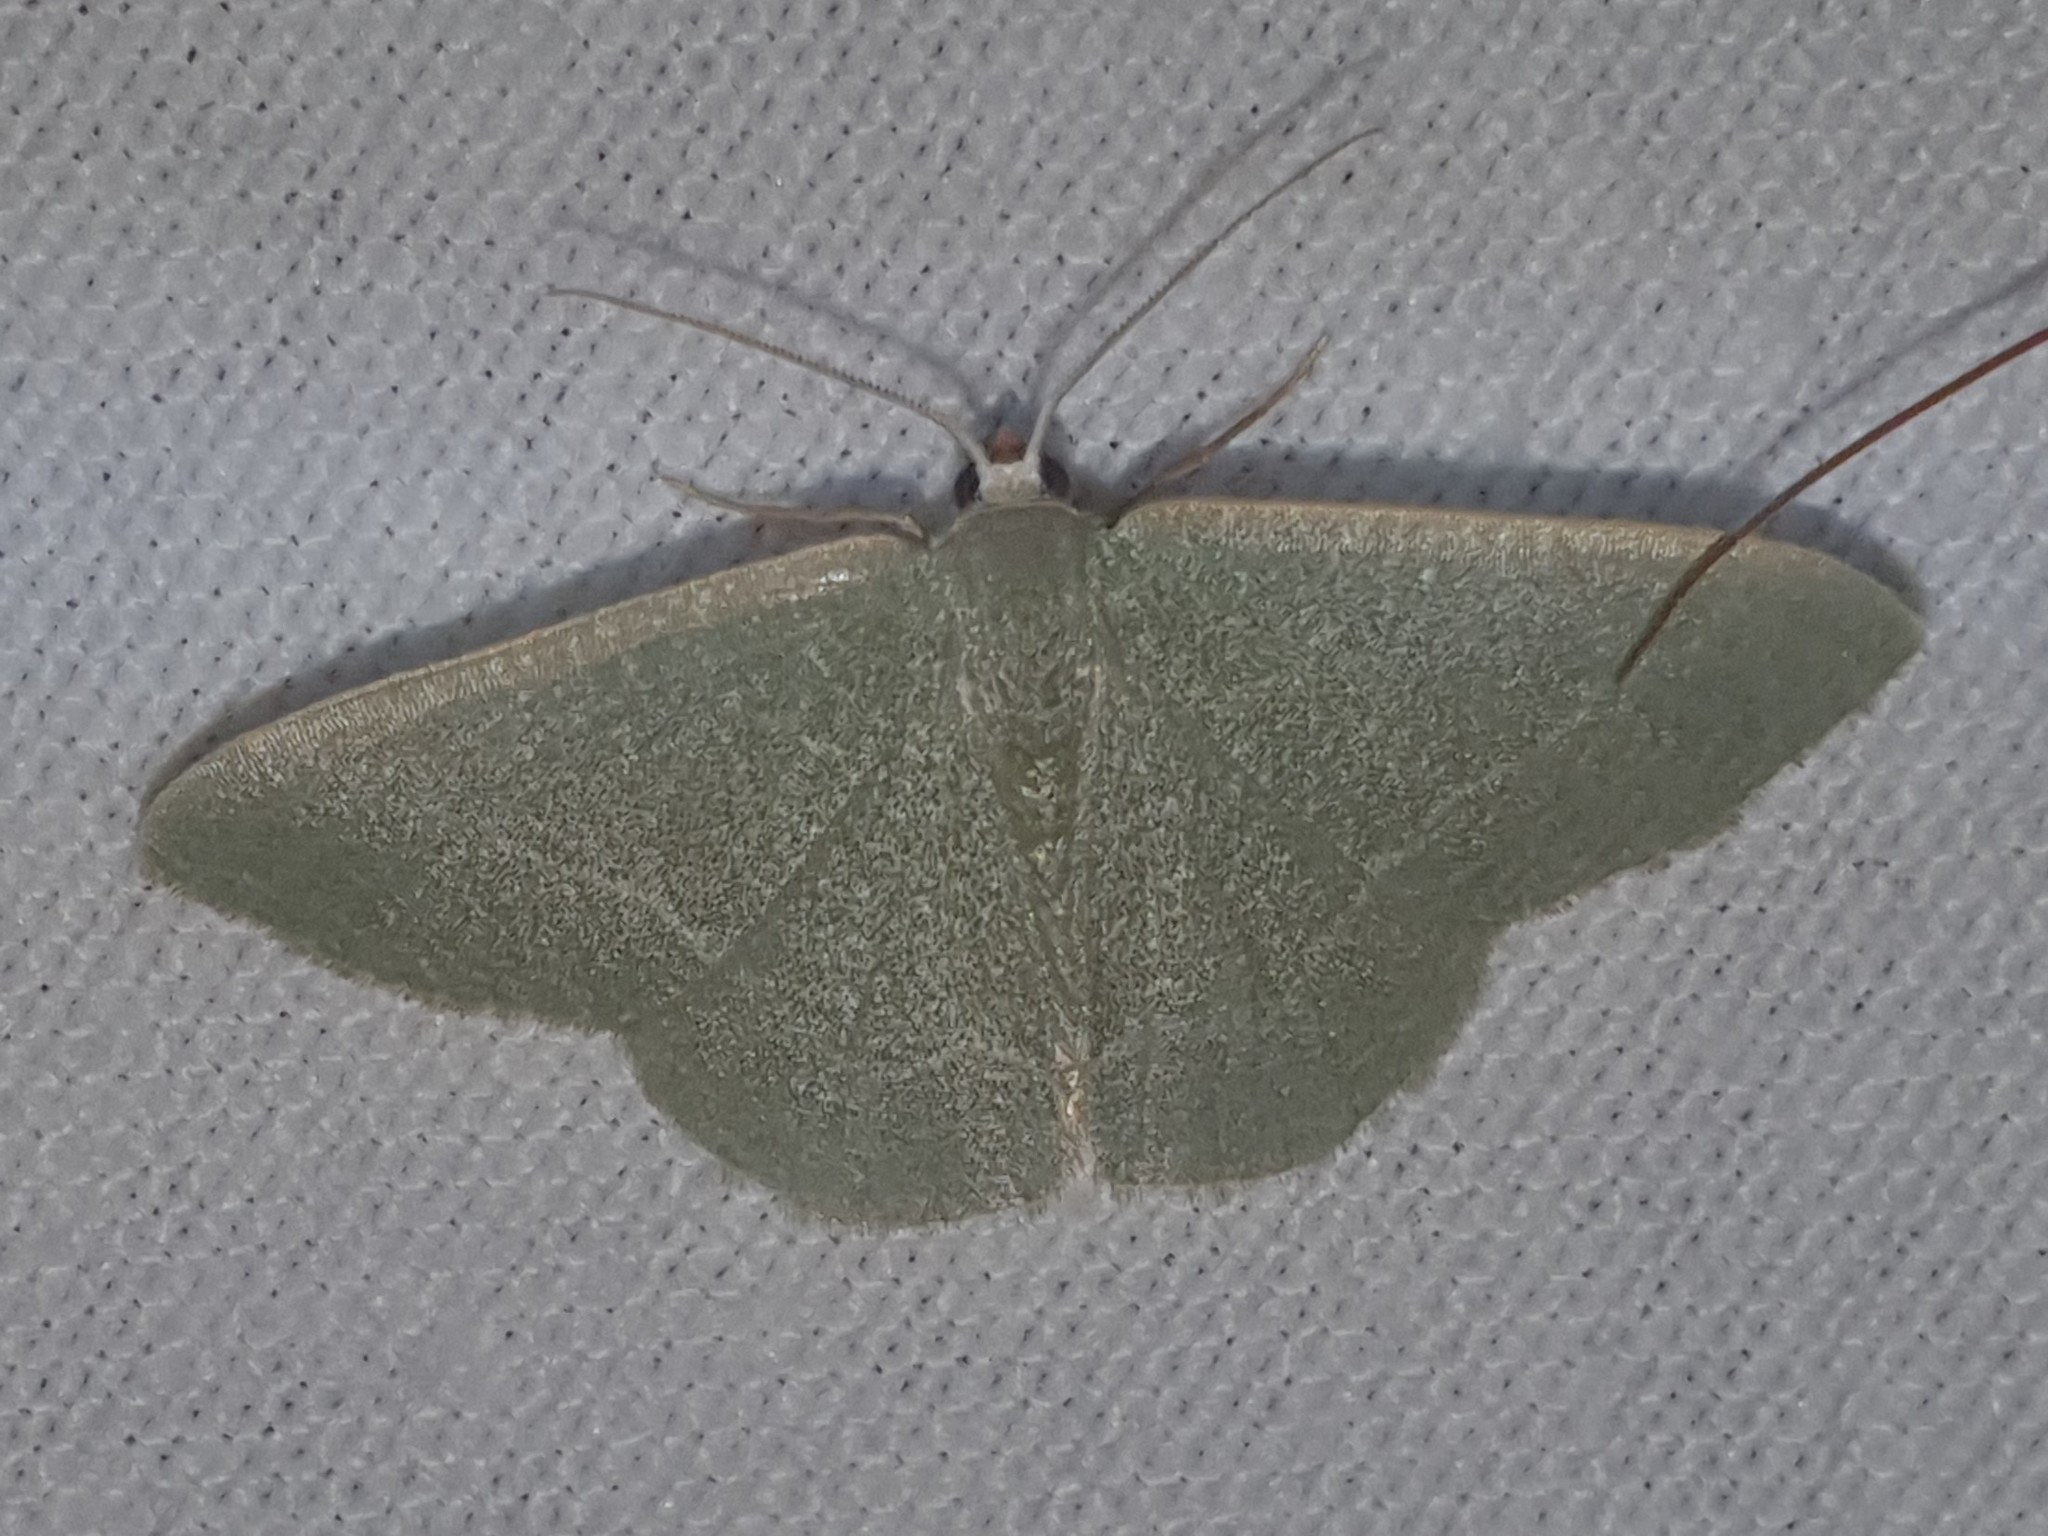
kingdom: Animalia
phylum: Arthropoda
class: Insecta
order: Lepidoptera
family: Geometridae
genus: Chlorissa
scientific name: Chlorissa etruscaria
